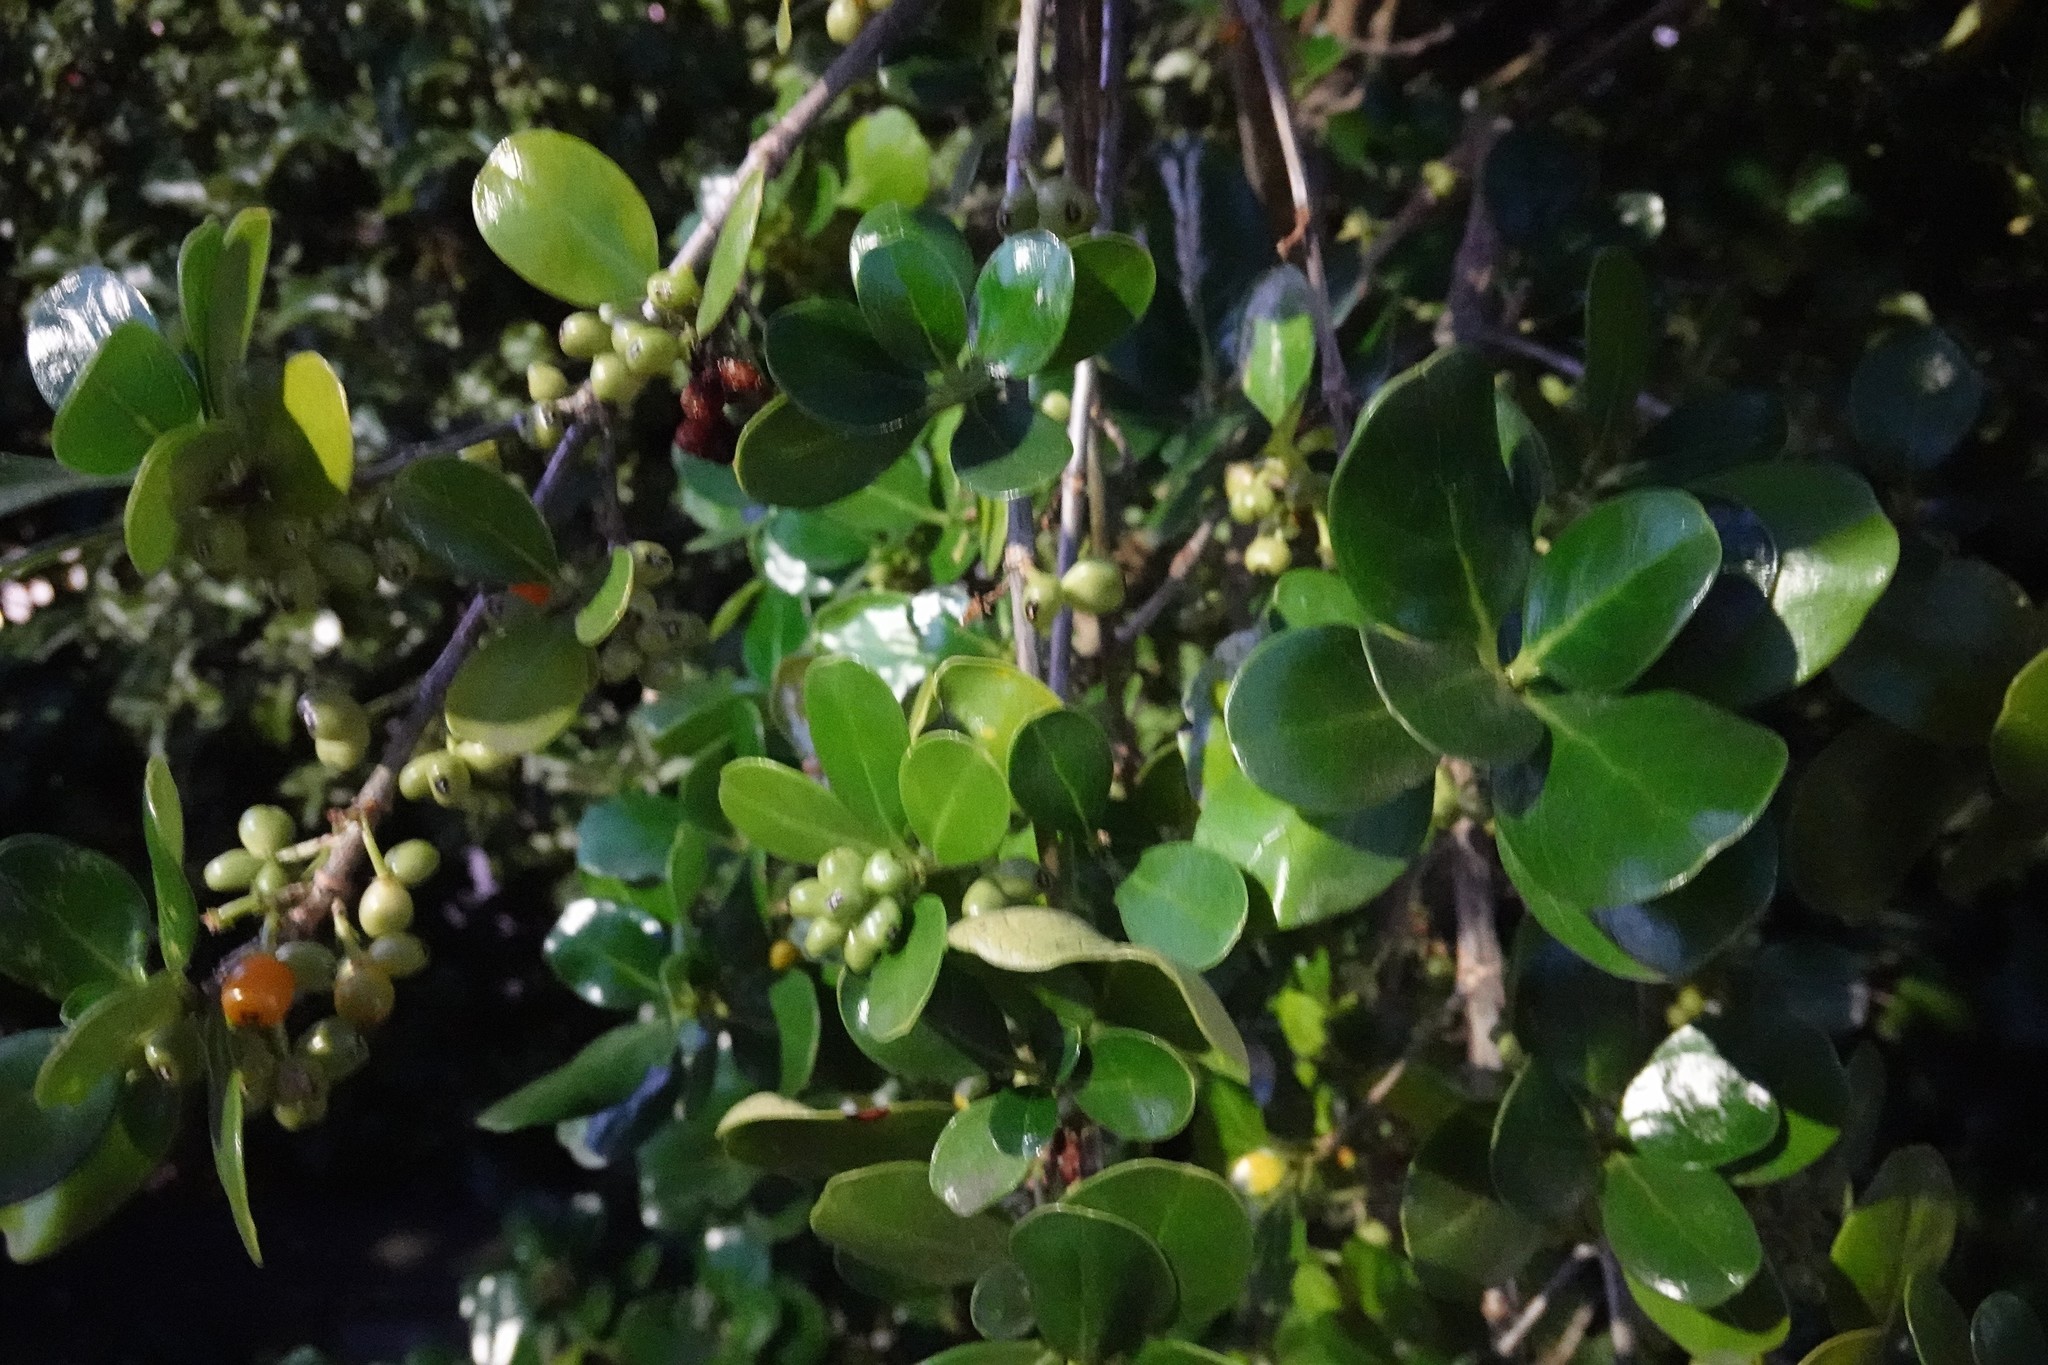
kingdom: Plantae
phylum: Tracheophyta
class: Magnoliopsida
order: Gentianales
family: Rubiaceae
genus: Coprosma
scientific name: Coprosma repens
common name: Tree bedstraw
